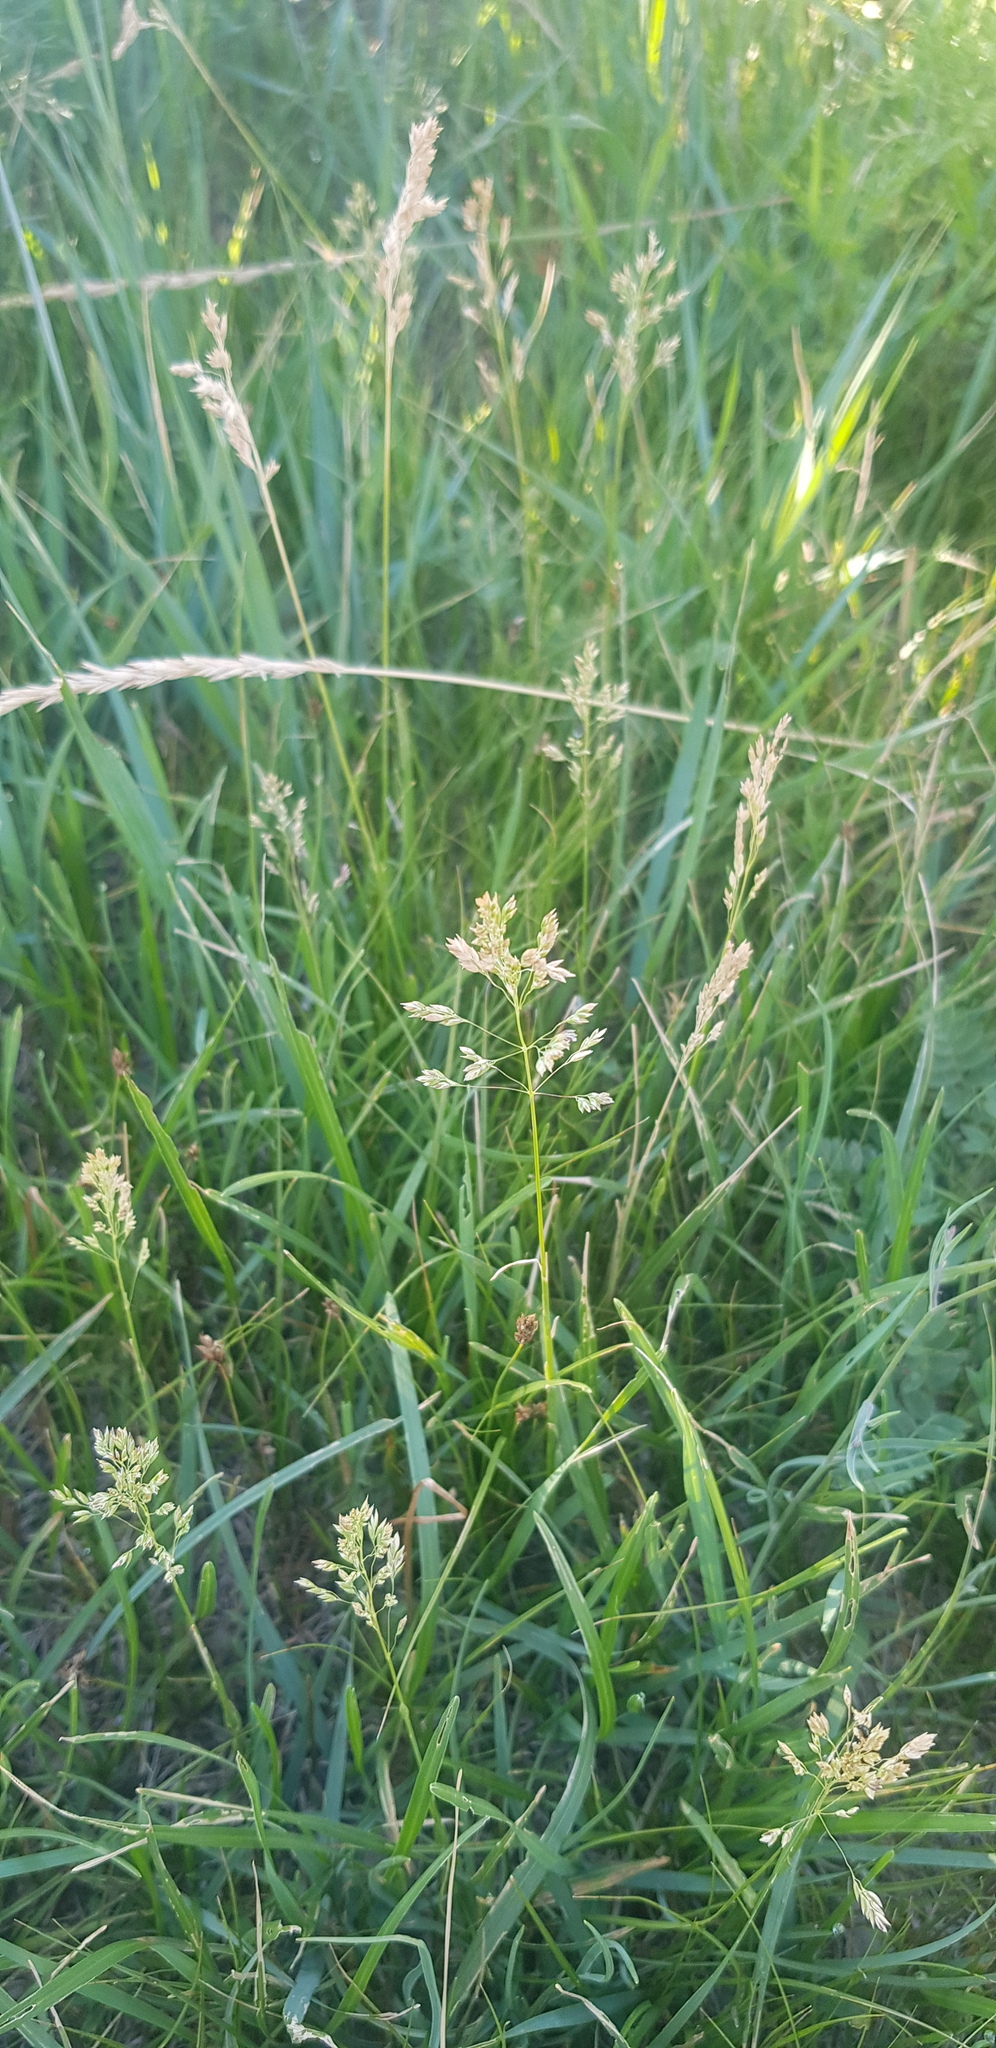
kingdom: Plantae
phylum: Tracheophyta
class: Liliopsida
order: Poales
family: Poaceae
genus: Poa
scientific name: Poa attenuata
